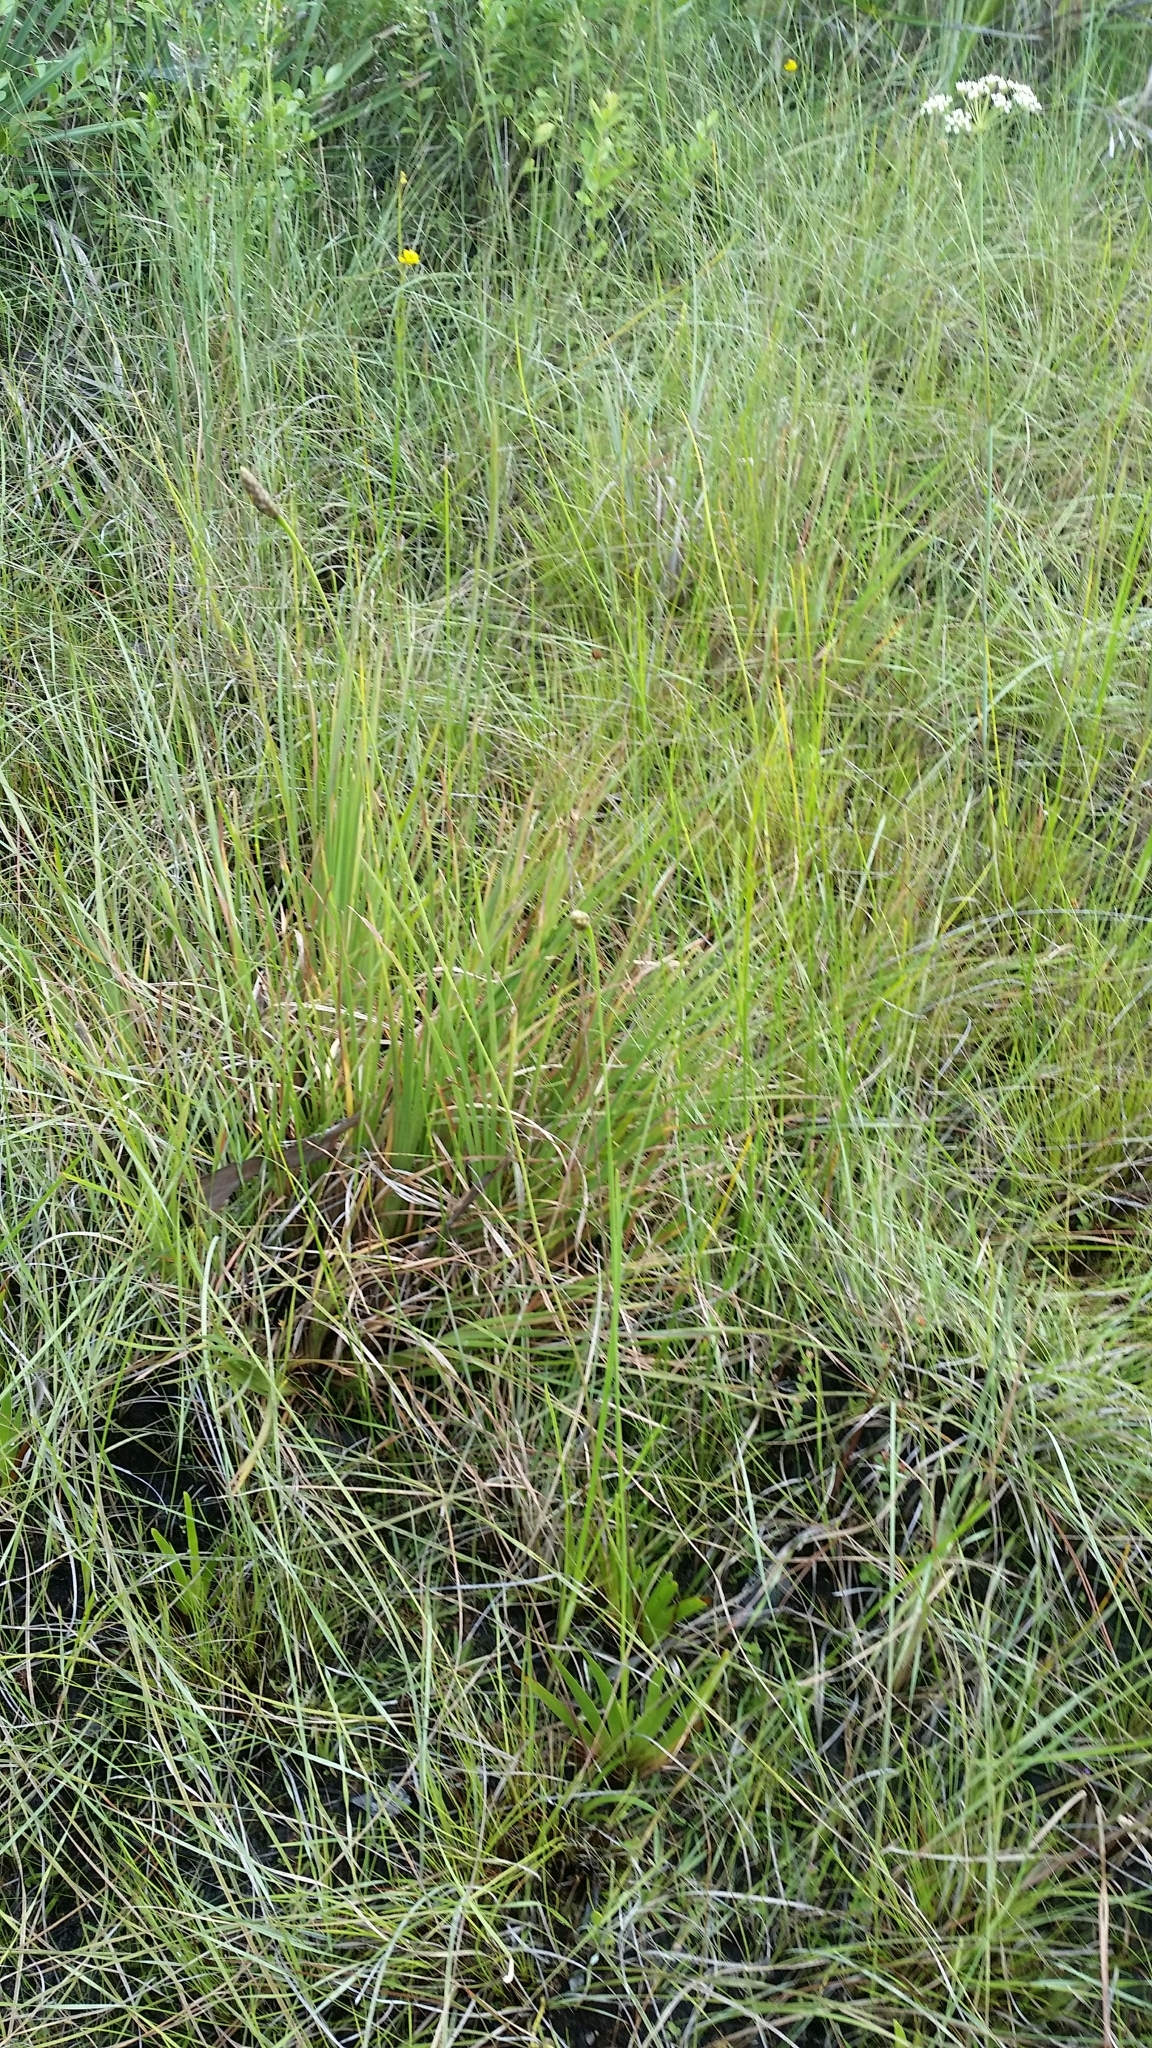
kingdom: Plantae
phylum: Tracheophyta
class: Liliopsida
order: Poales
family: Xyridaceae
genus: Xyris
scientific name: Xyris ambigua
